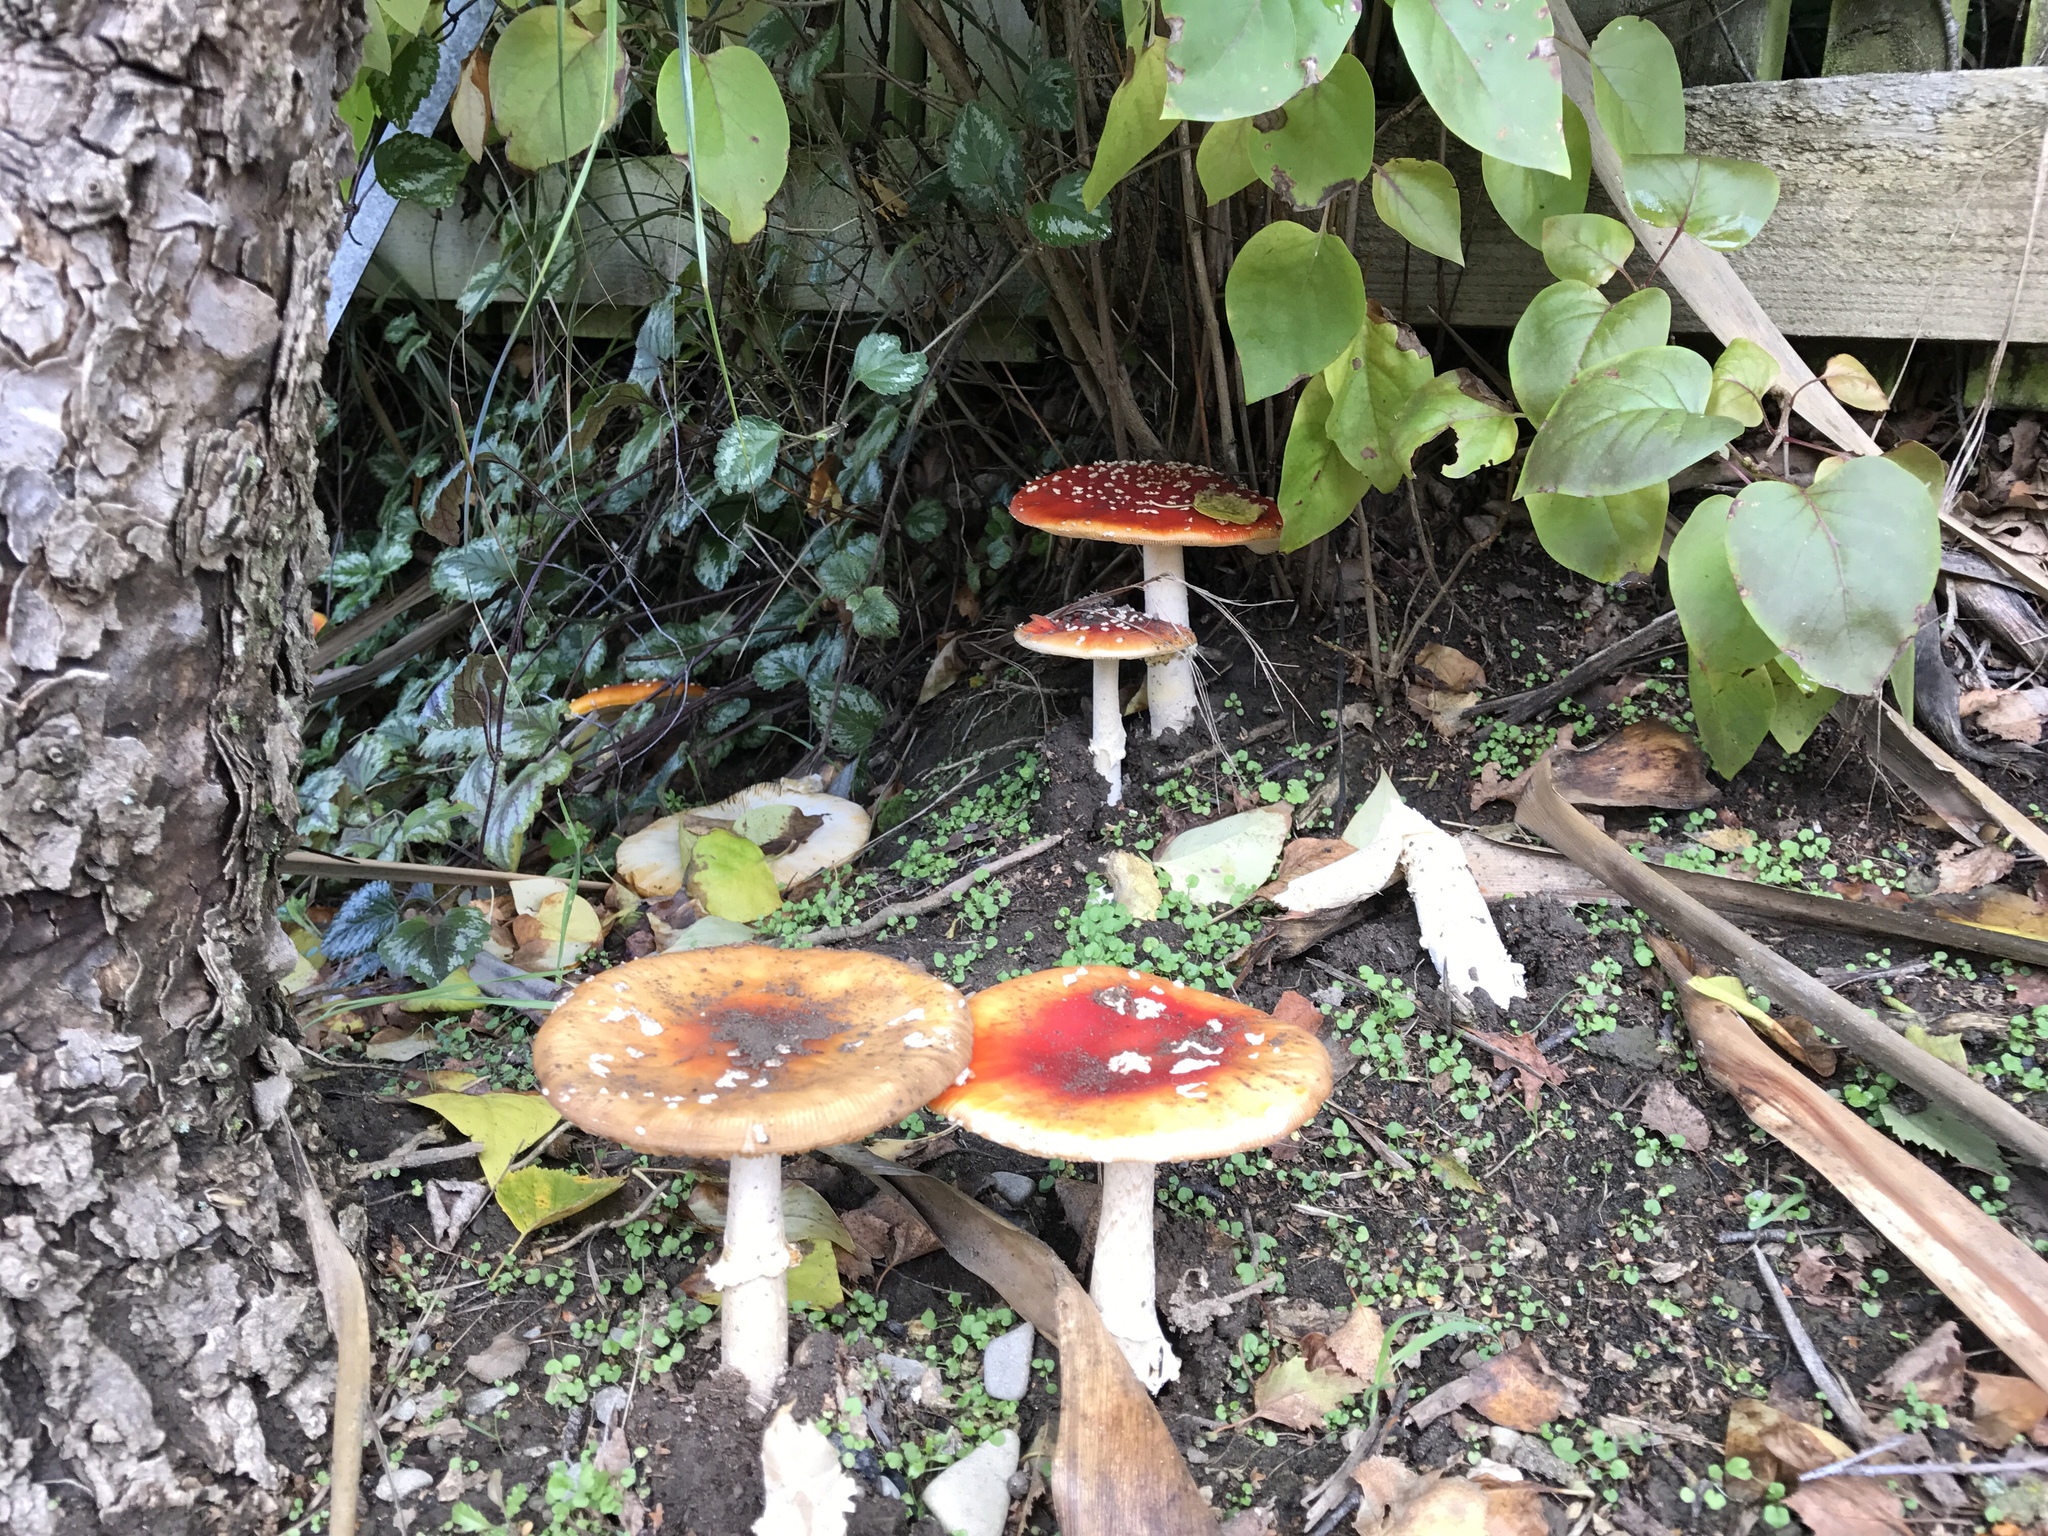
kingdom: Fungi
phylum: Basidiomycota
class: Agaricomycetes
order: Agaricales
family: Amanitaceae
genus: Amanita
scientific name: Amanita muscaria
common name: Fly agaric
